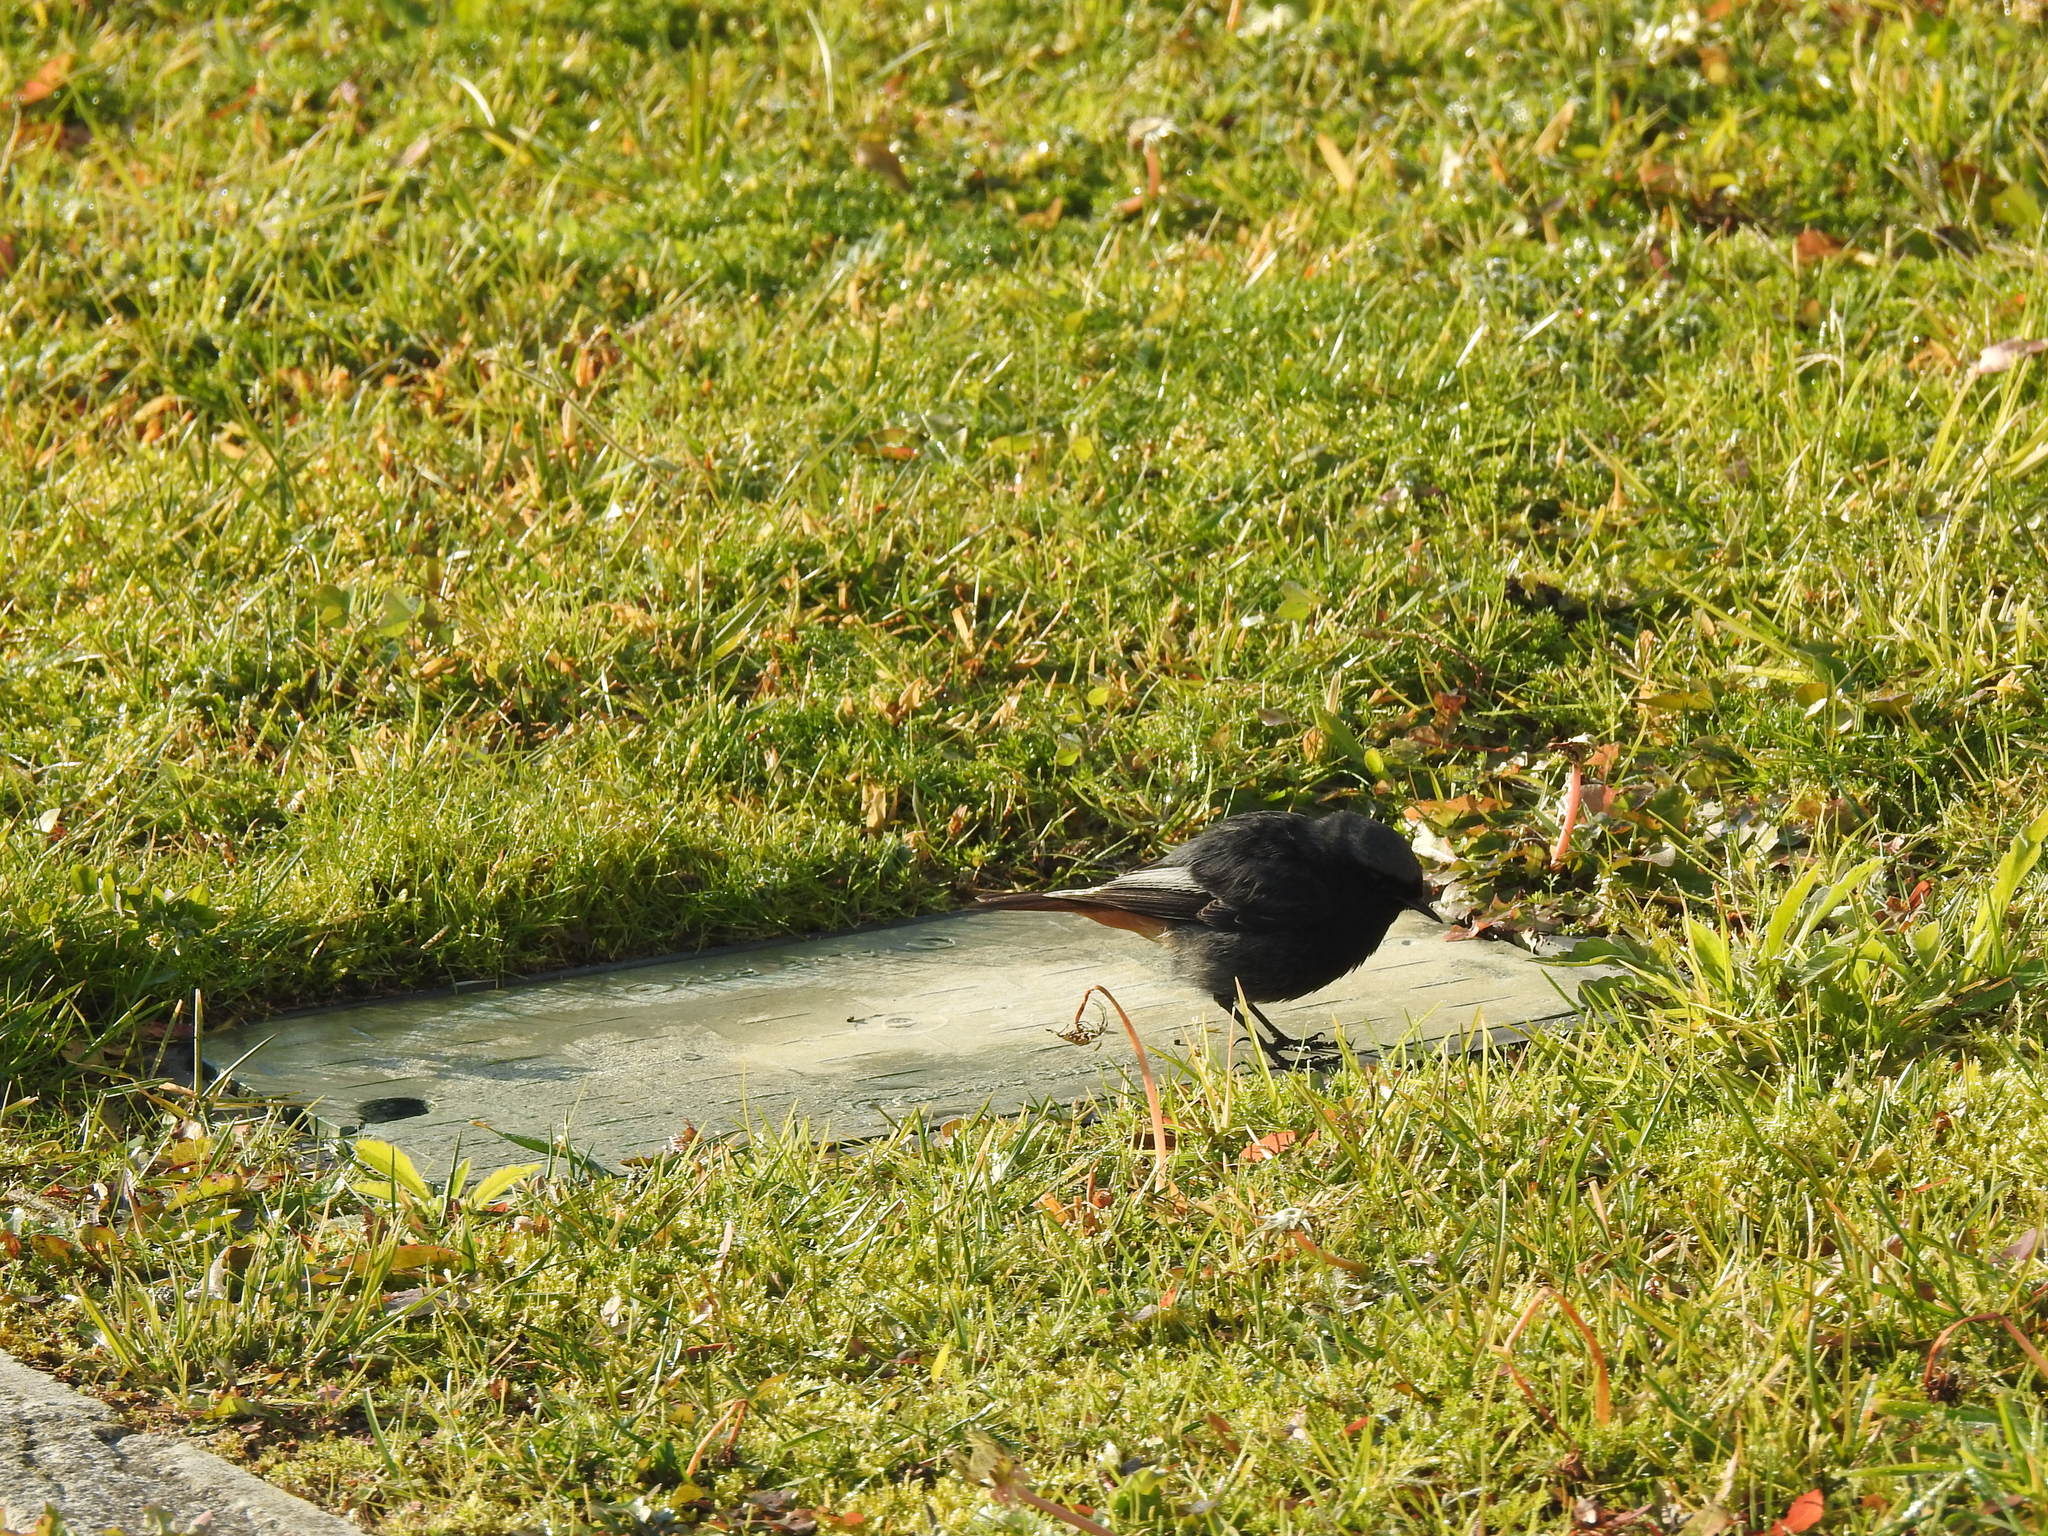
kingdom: Animalia
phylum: Chordata
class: Aves
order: Passeriformes
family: Muscicapidae
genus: Phoenicurus
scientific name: Phoenicurus ochruros
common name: Black redstart
